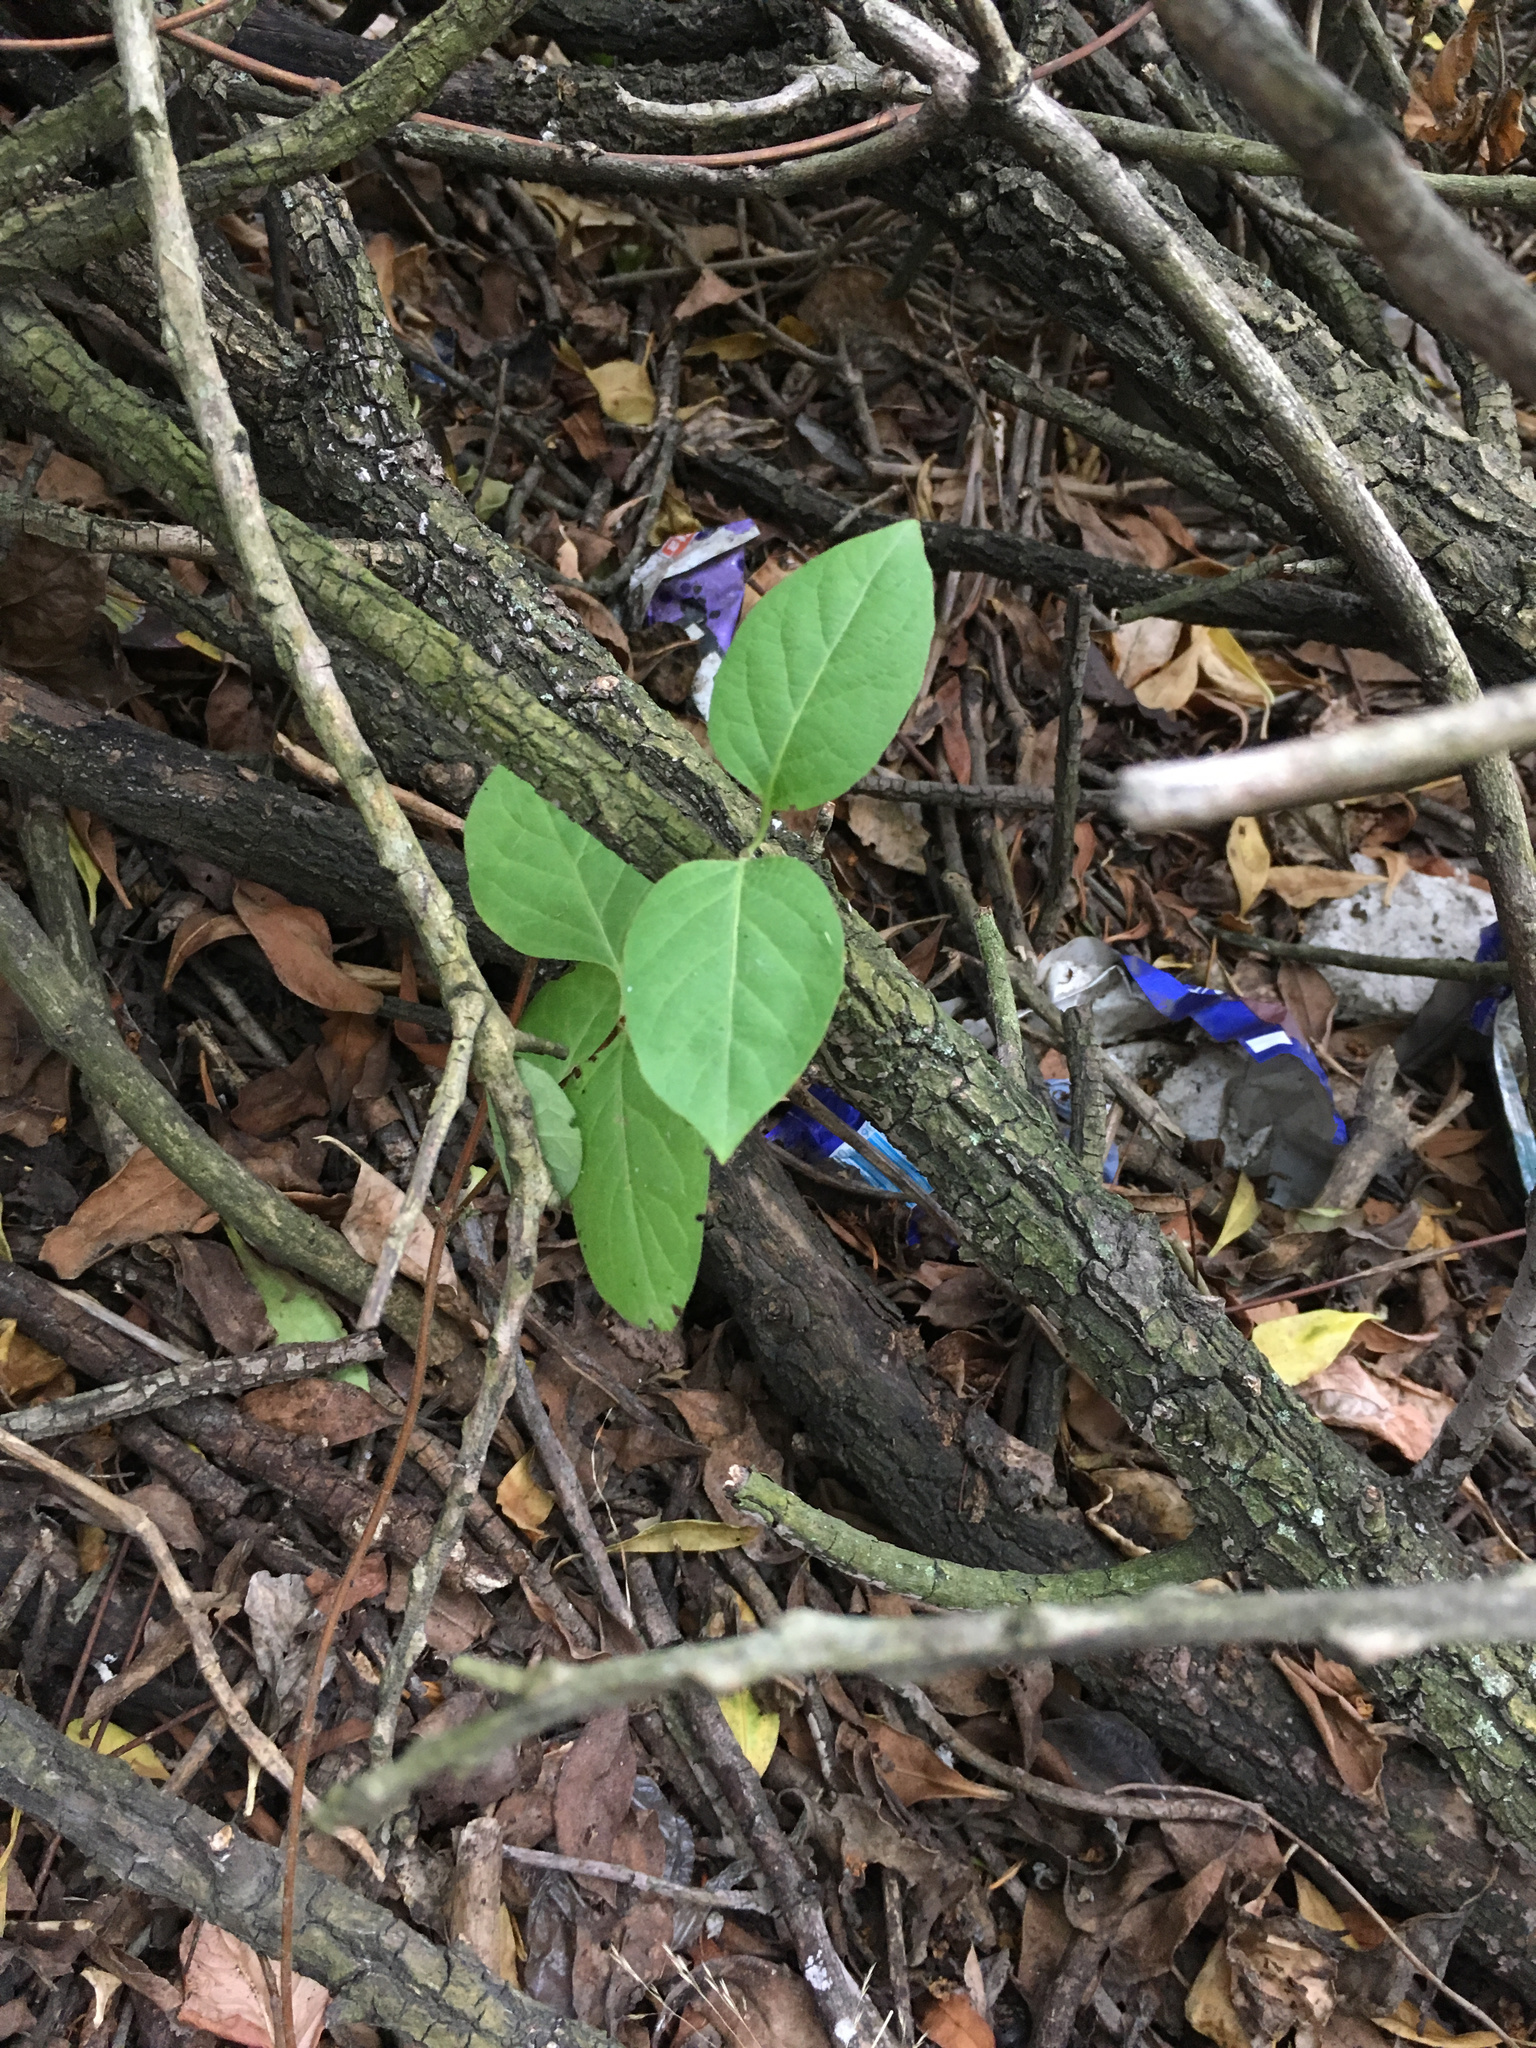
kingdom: Plantae
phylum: Tracheophyta
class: Magnoliopsida
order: Dipsacales
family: Caprifoliaceae
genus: Lonicera
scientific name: Lonicera japonica
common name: Japanese honeysuckle
